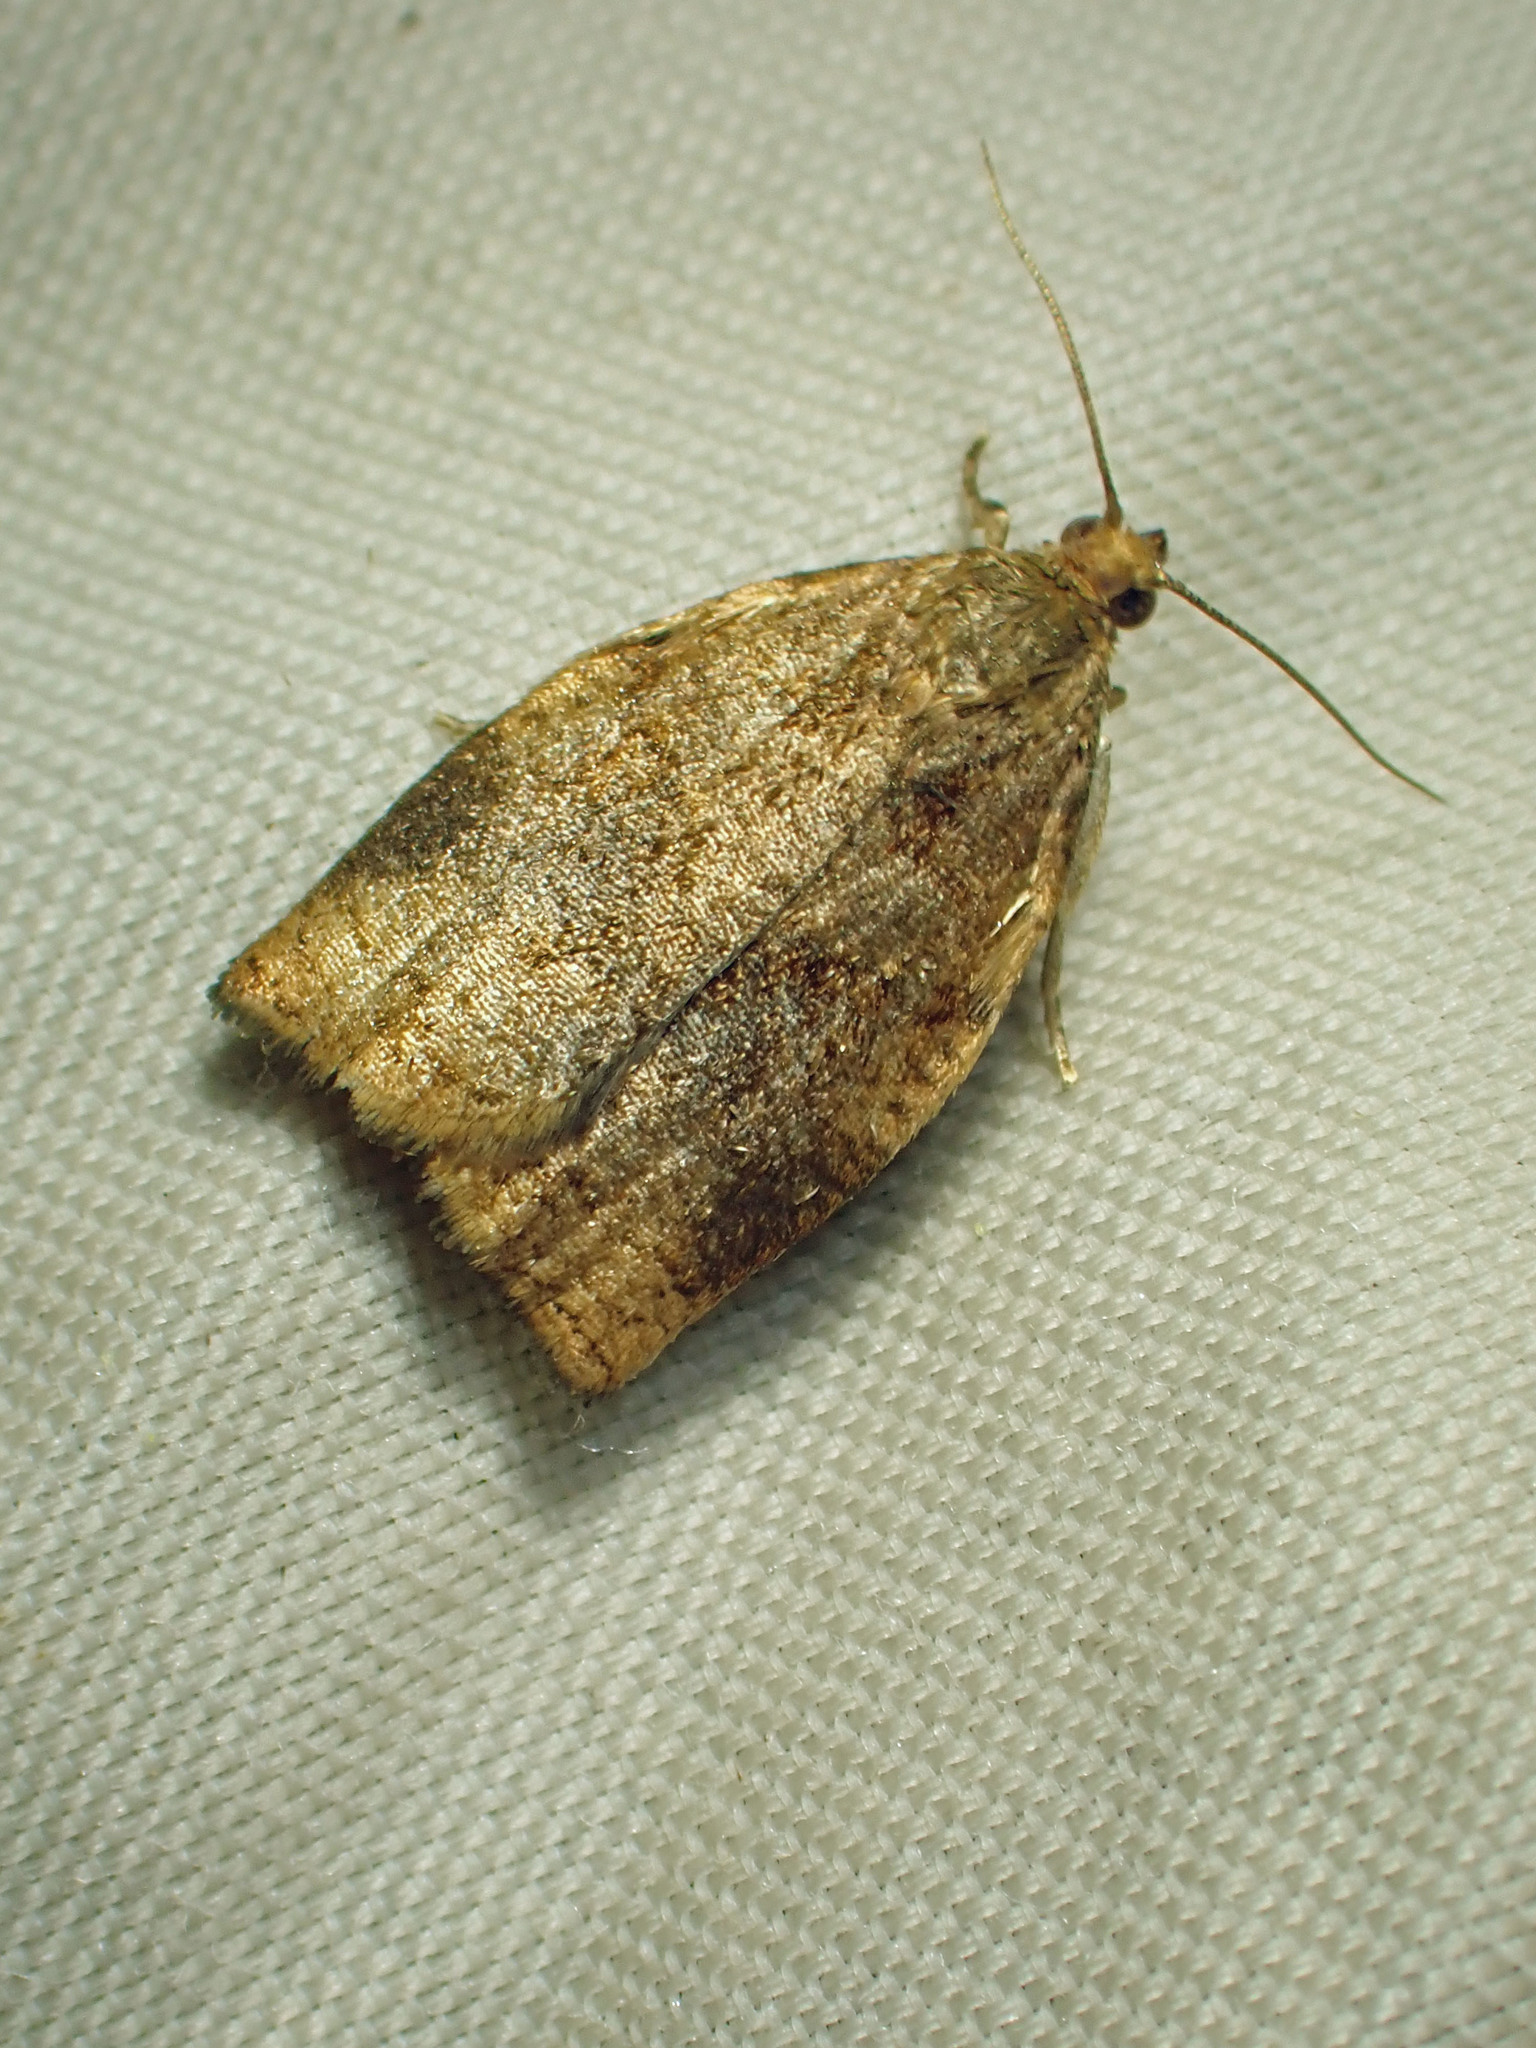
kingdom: Animalia
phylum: Arthropoda
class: Insecta
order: Lepidoptera
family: Tortricidae
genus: Archips
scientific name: Archips rosana
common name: Rose tortrix
